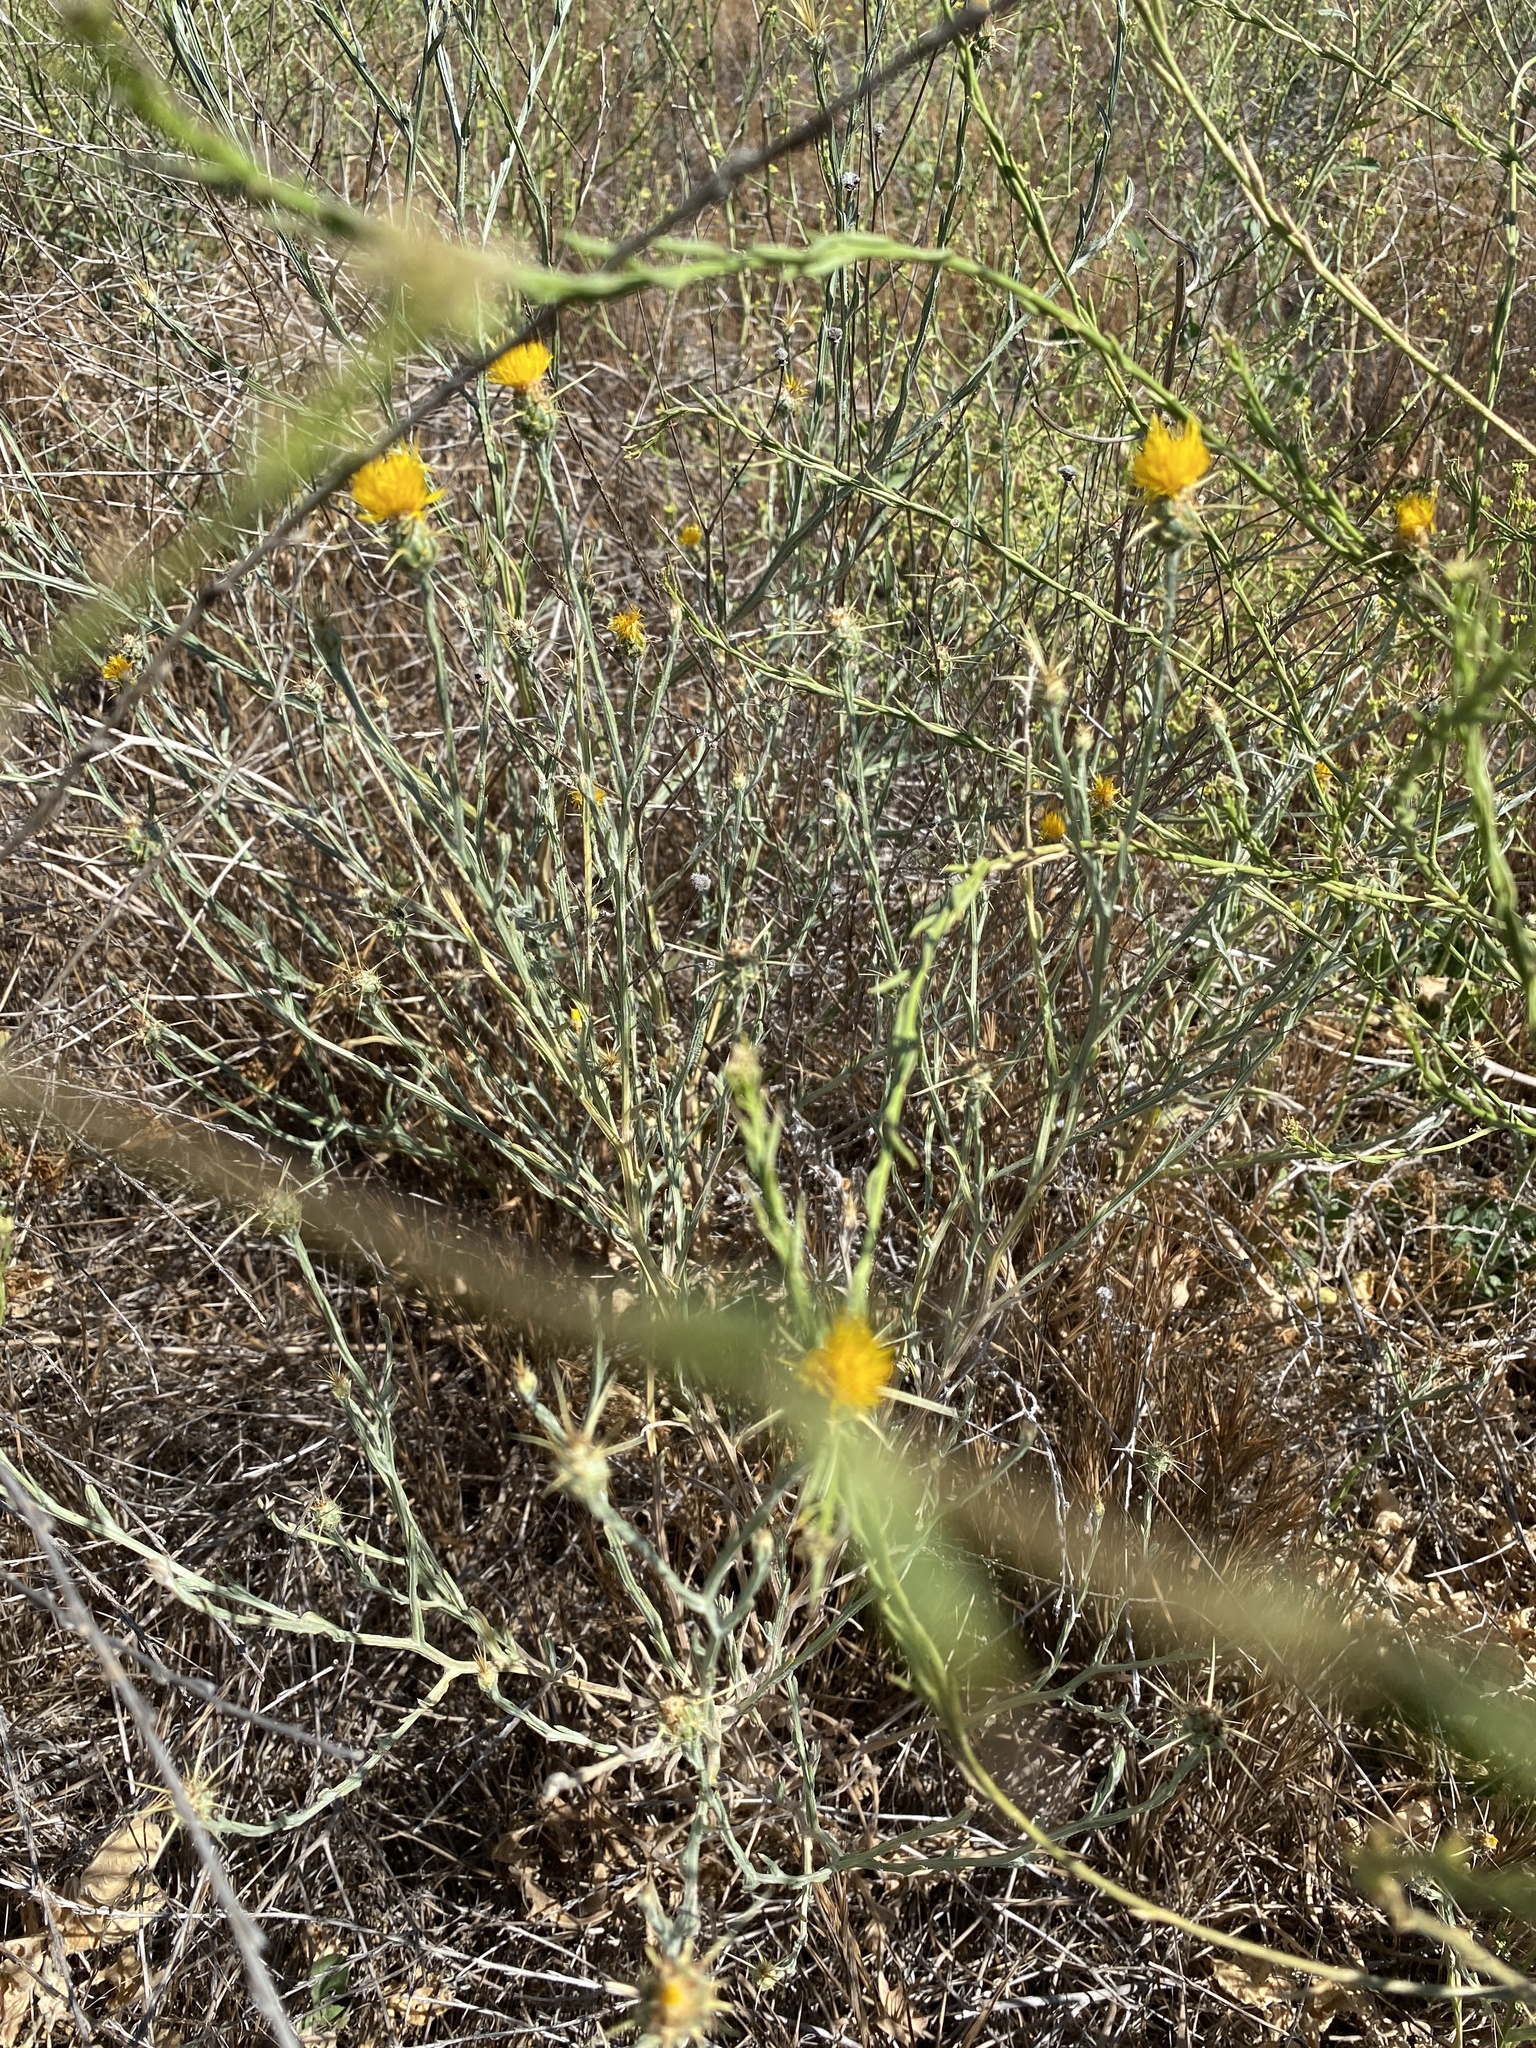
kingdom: Plantae
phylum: Tracheophyta
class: Magnoliopsida
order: Asterales
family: Asteraceae
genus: Centaurea
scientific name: Centaurea solstitialis
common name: Yellow star-thistle
